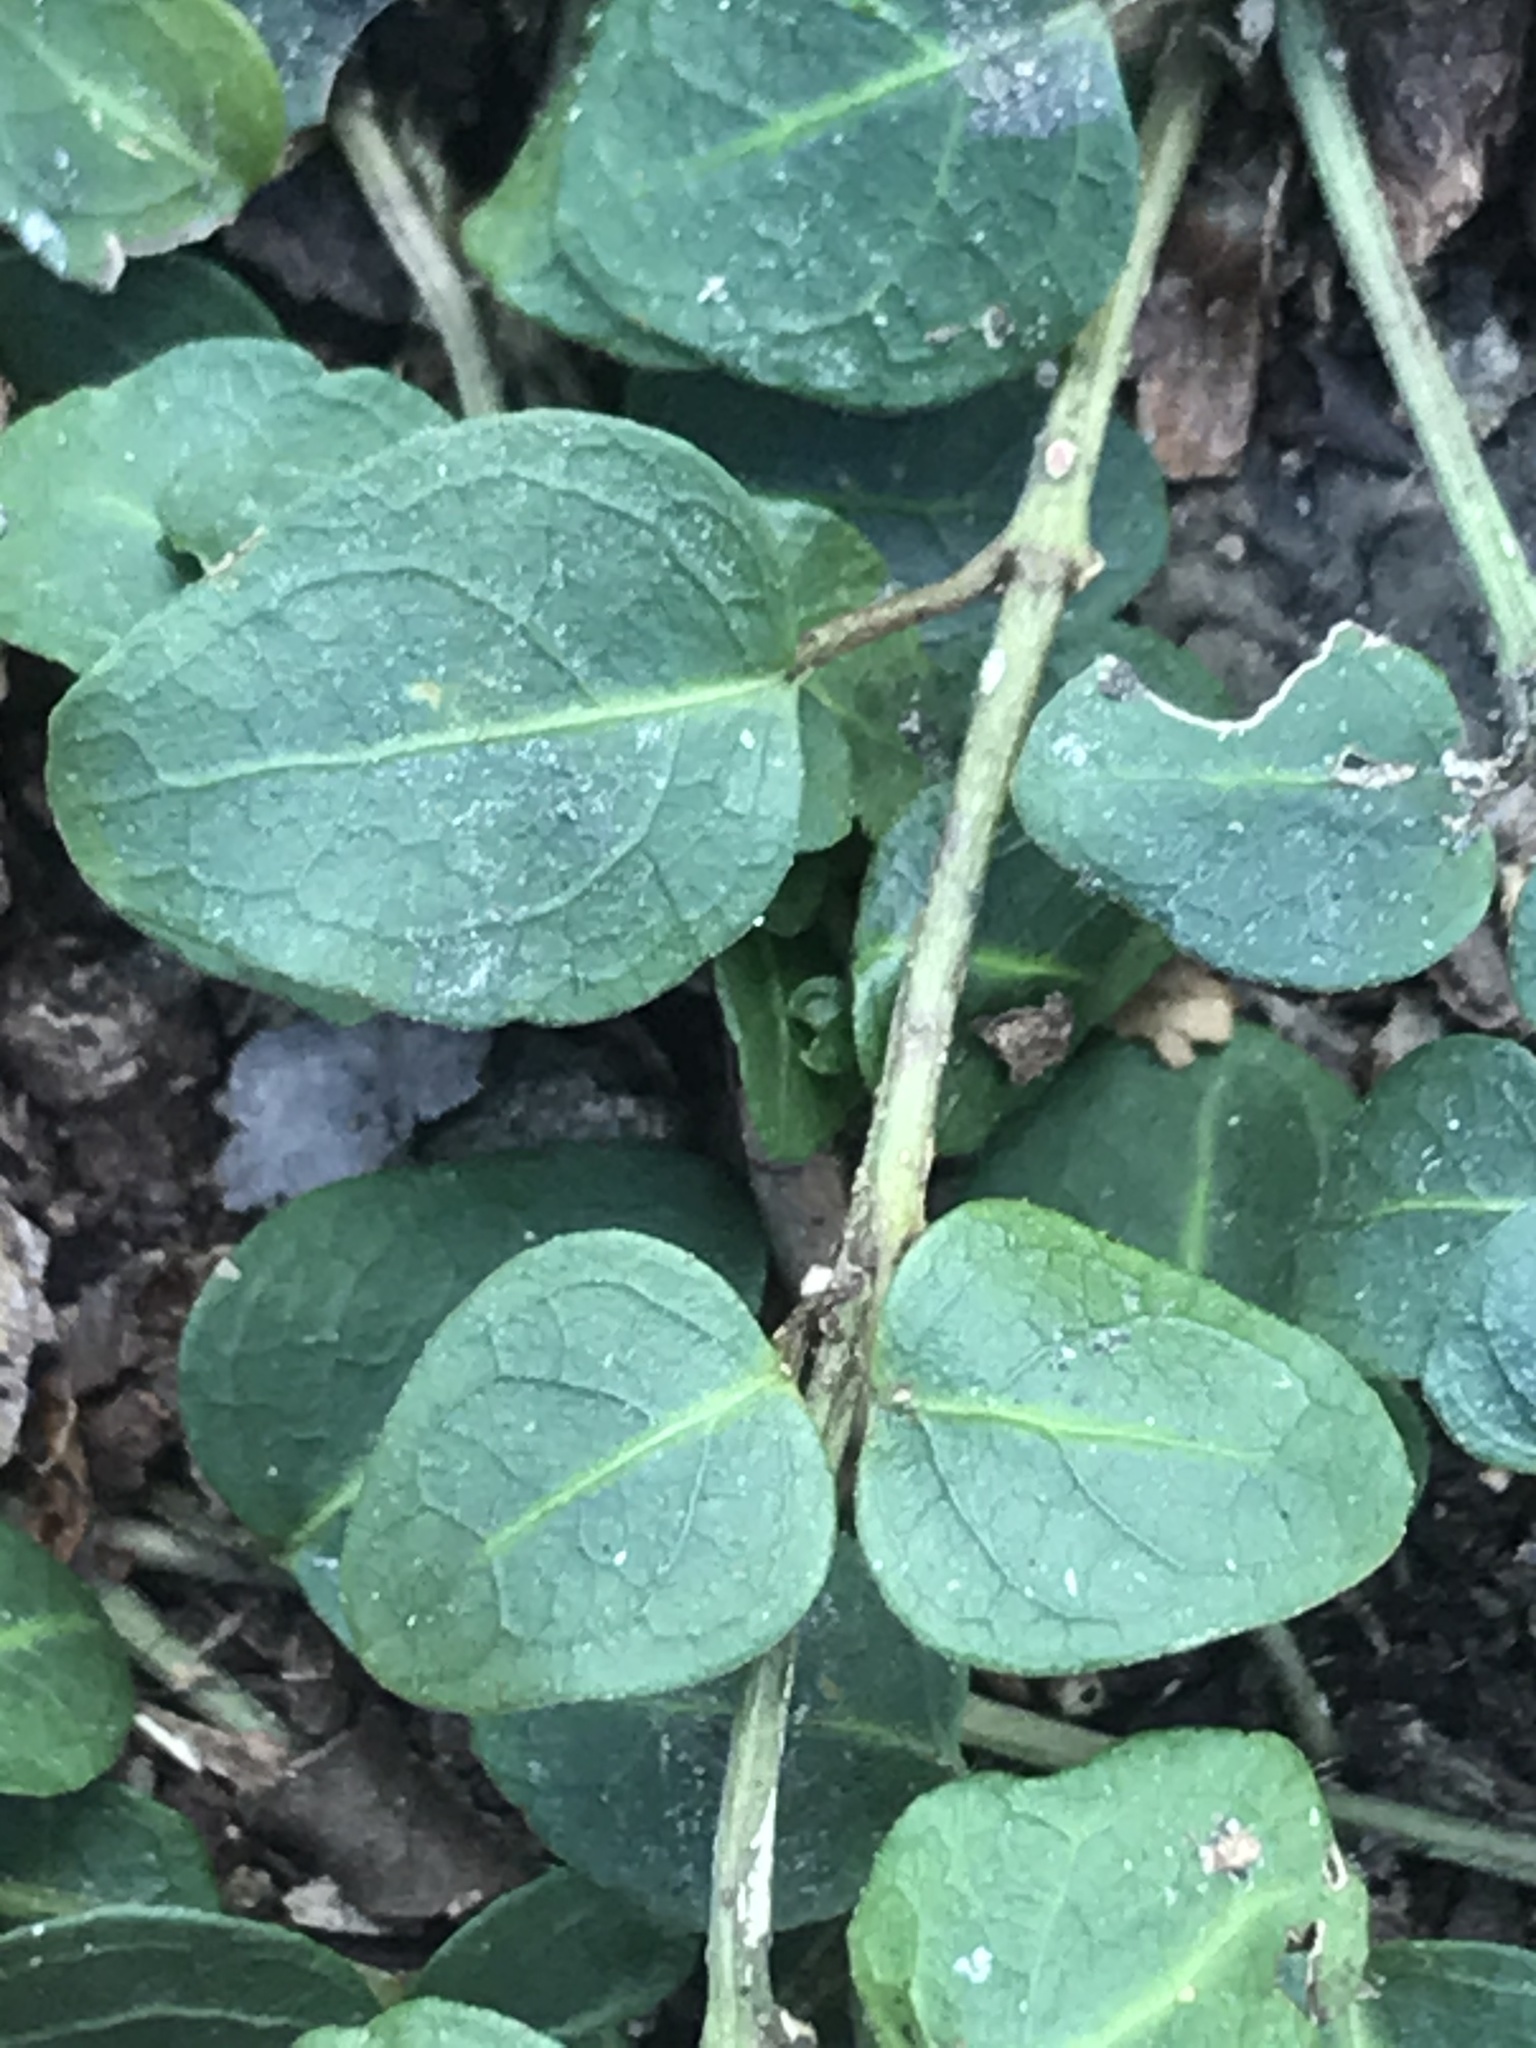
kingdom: Plantae
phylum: Tracheophyta
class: Magnoliopsida
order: Gentianales
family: Rubiaceae
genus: Mitchella
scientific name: Mitchella repens
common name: Partridge-berry
